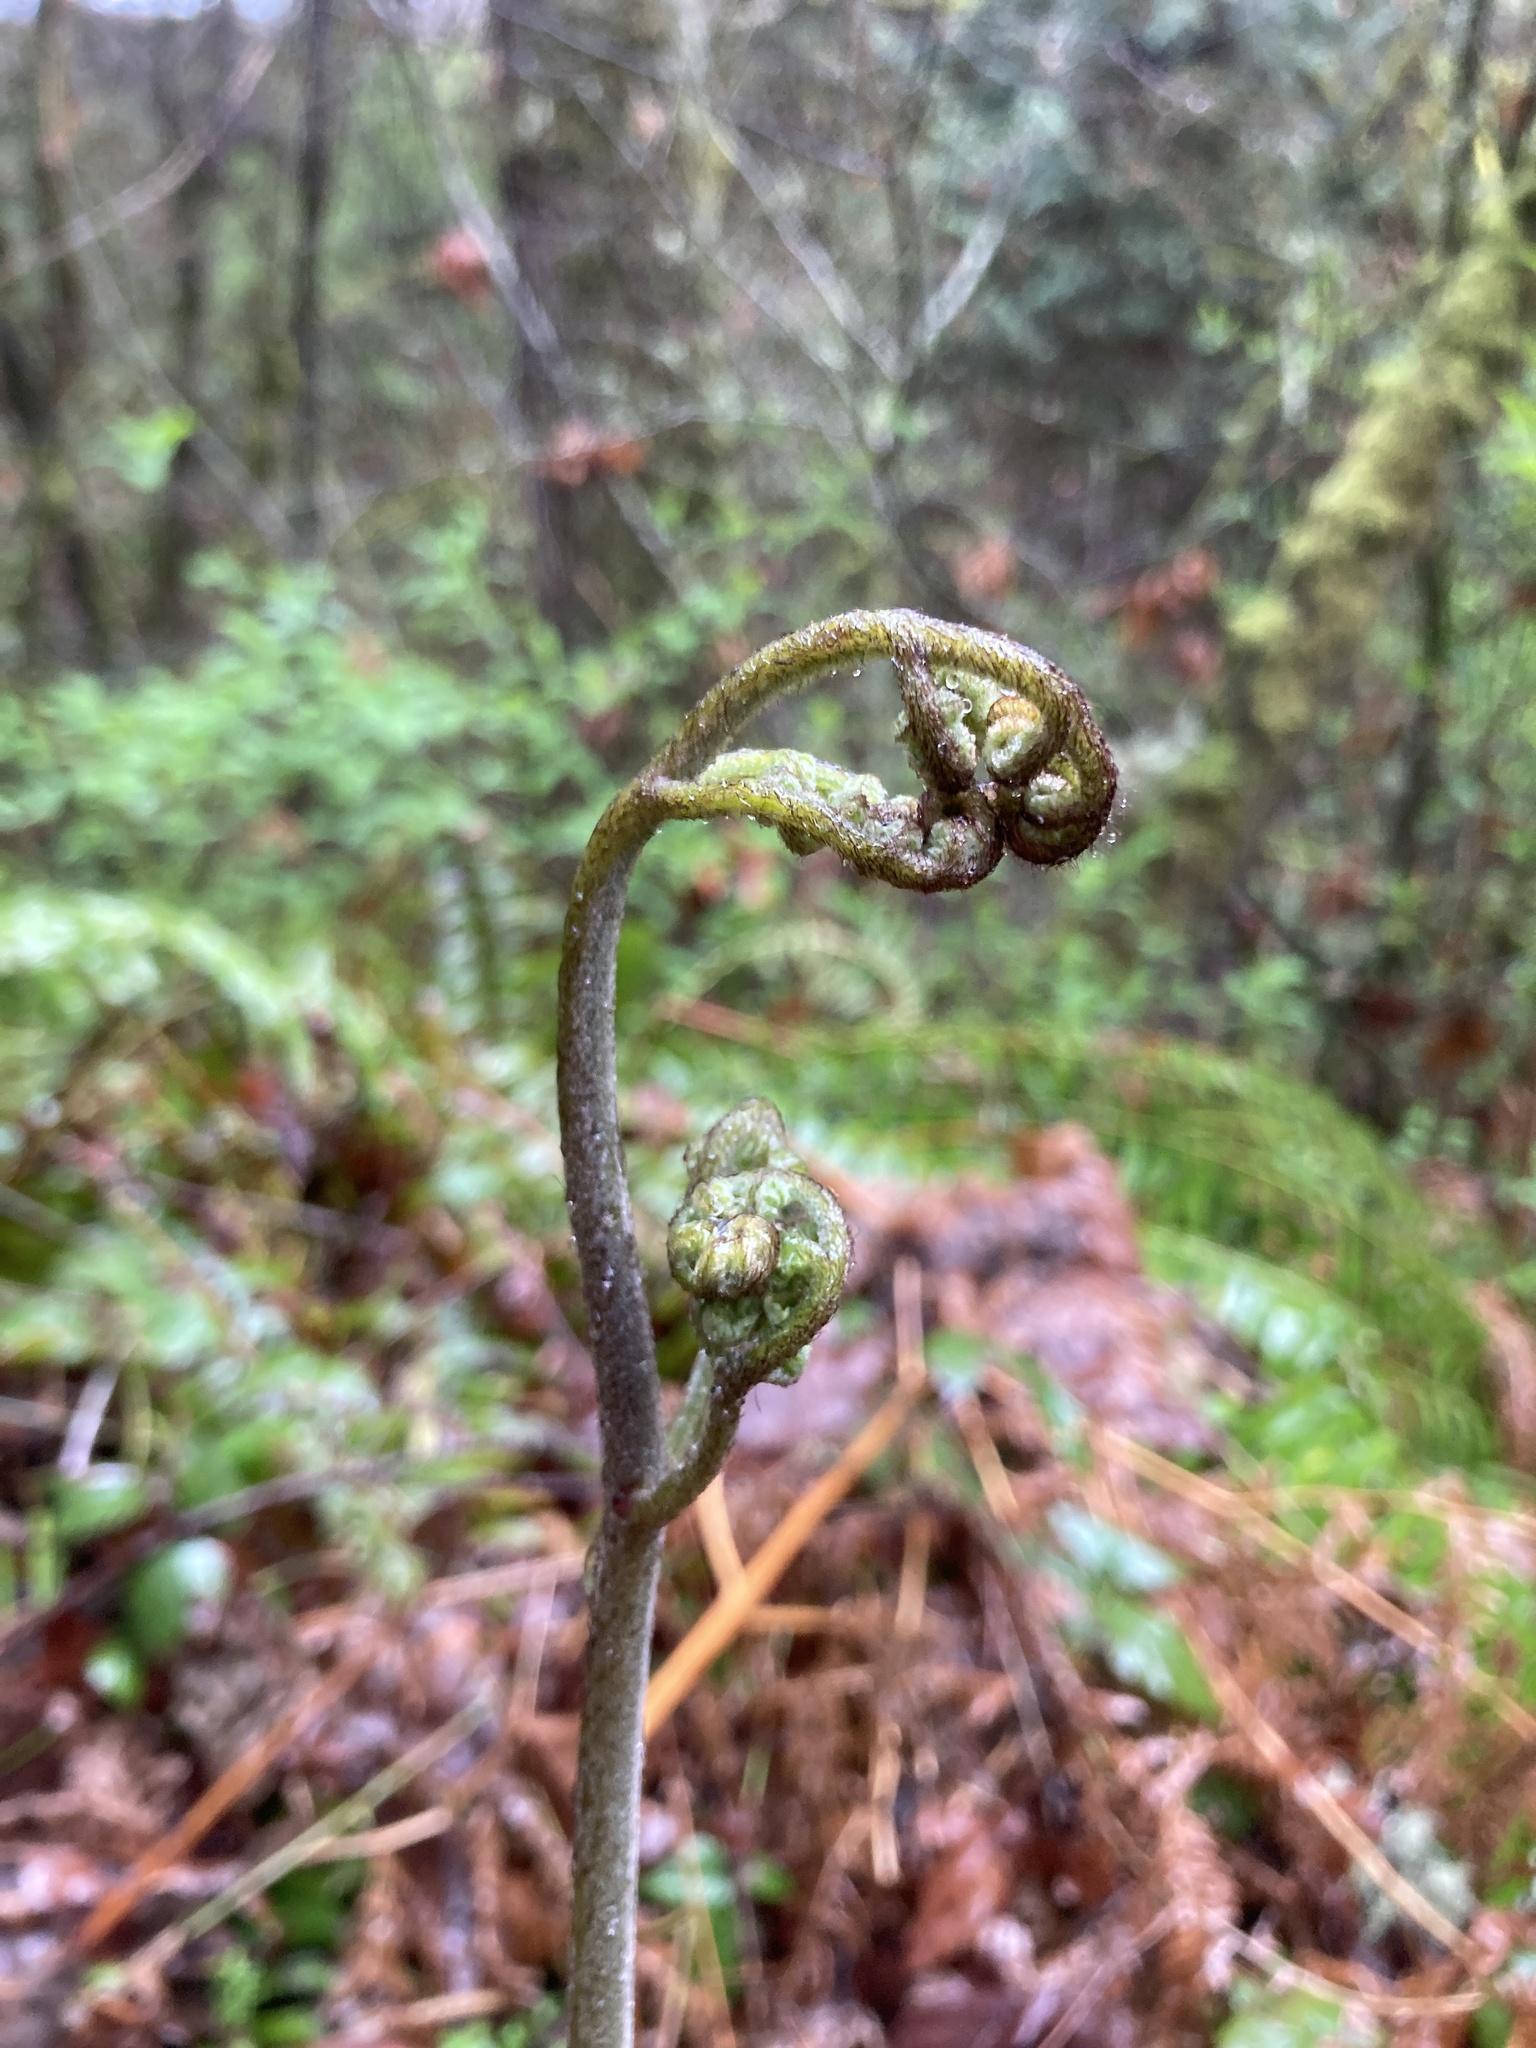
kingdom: Plantae
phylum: Tracheophyta
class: Polypodiopsida
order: Polypodiales
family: Dennstaedtiaceae
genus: Pteridium
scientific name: Pteridium aquilinum
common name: Bracken
